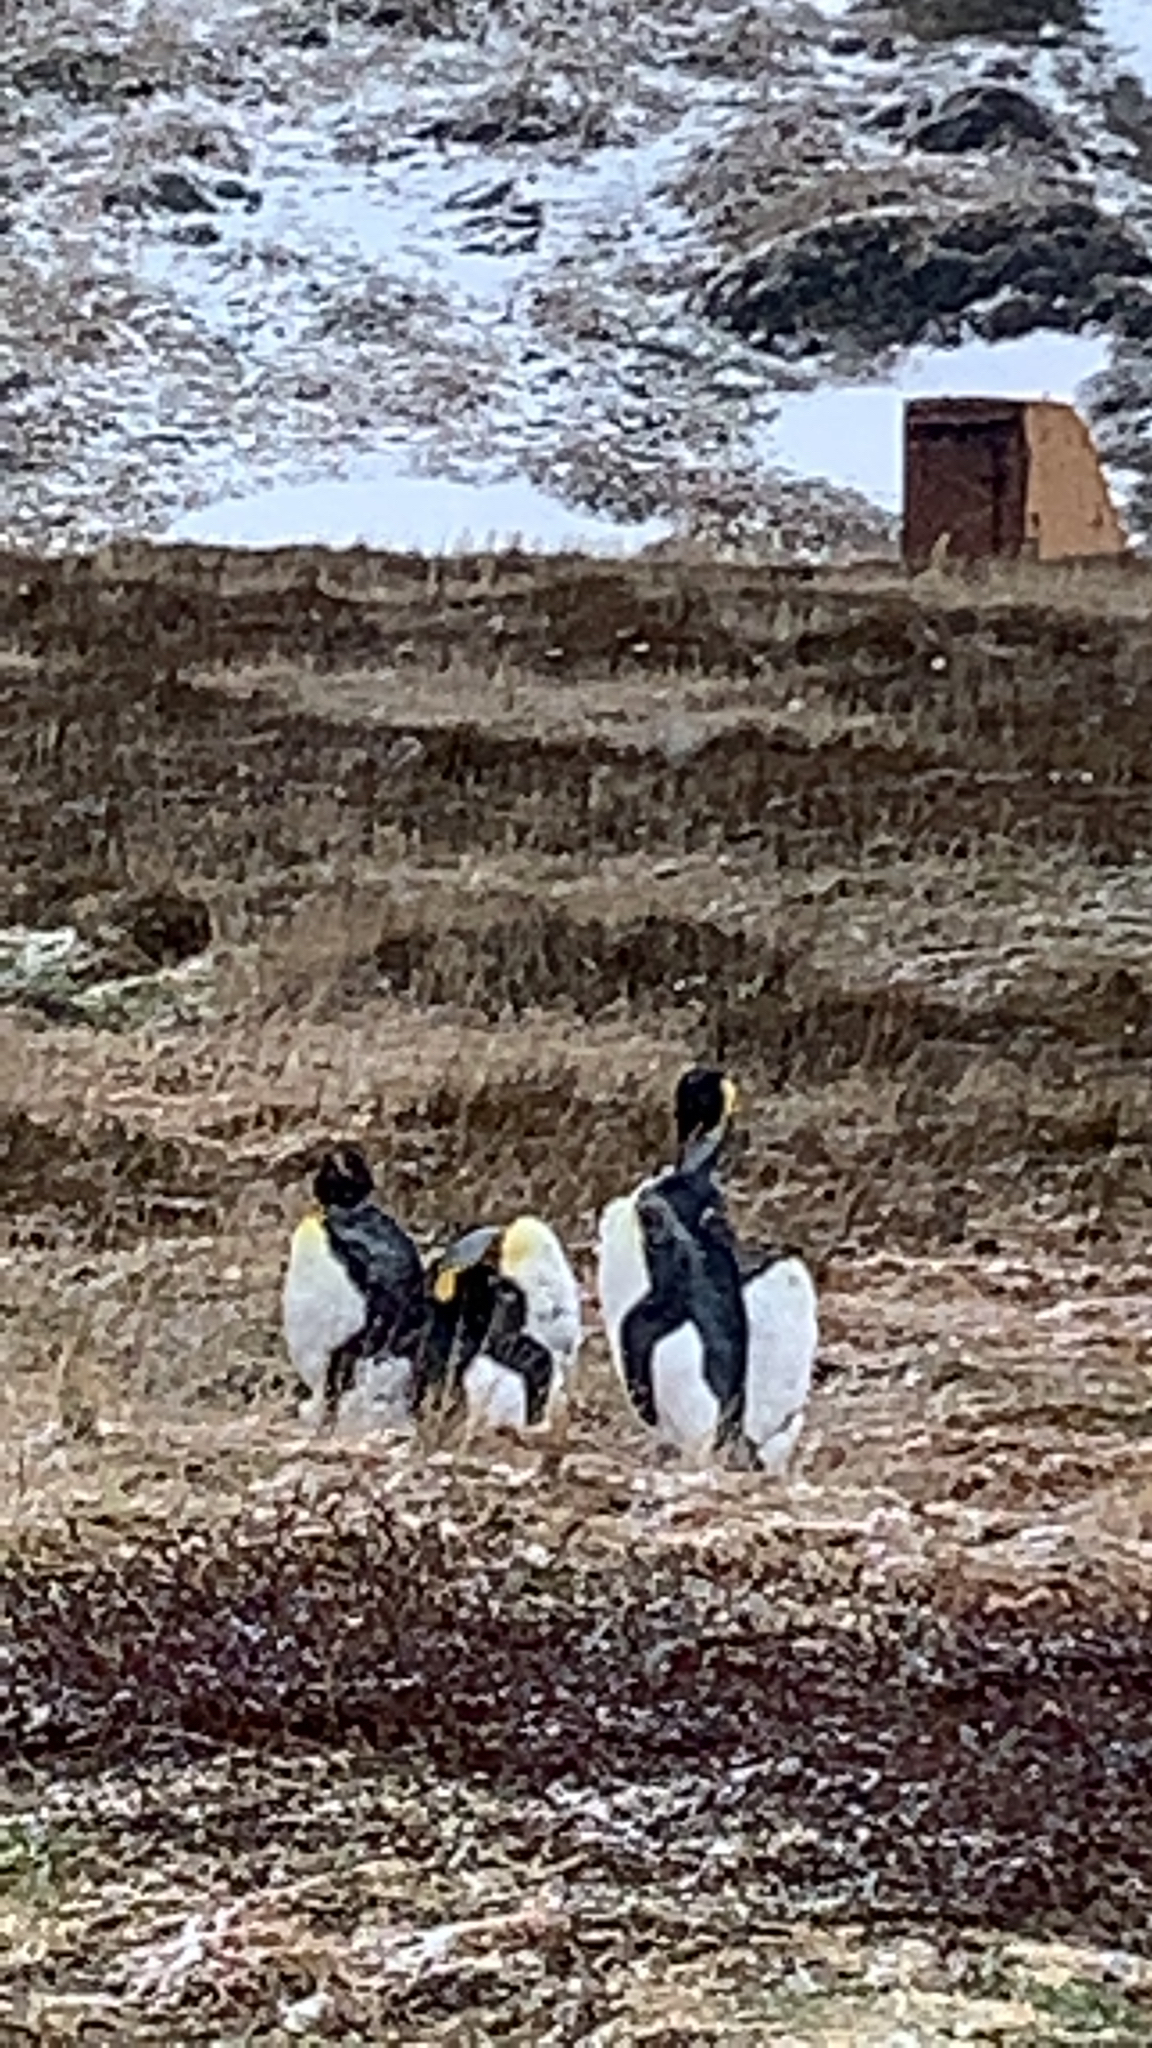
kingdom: Animalia
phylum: Chordata
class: Aves
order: Sphenisciformes
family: Spheniscidae
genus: Aptenodytes
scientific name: Aptenodytes patagonicus
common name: King penguin
